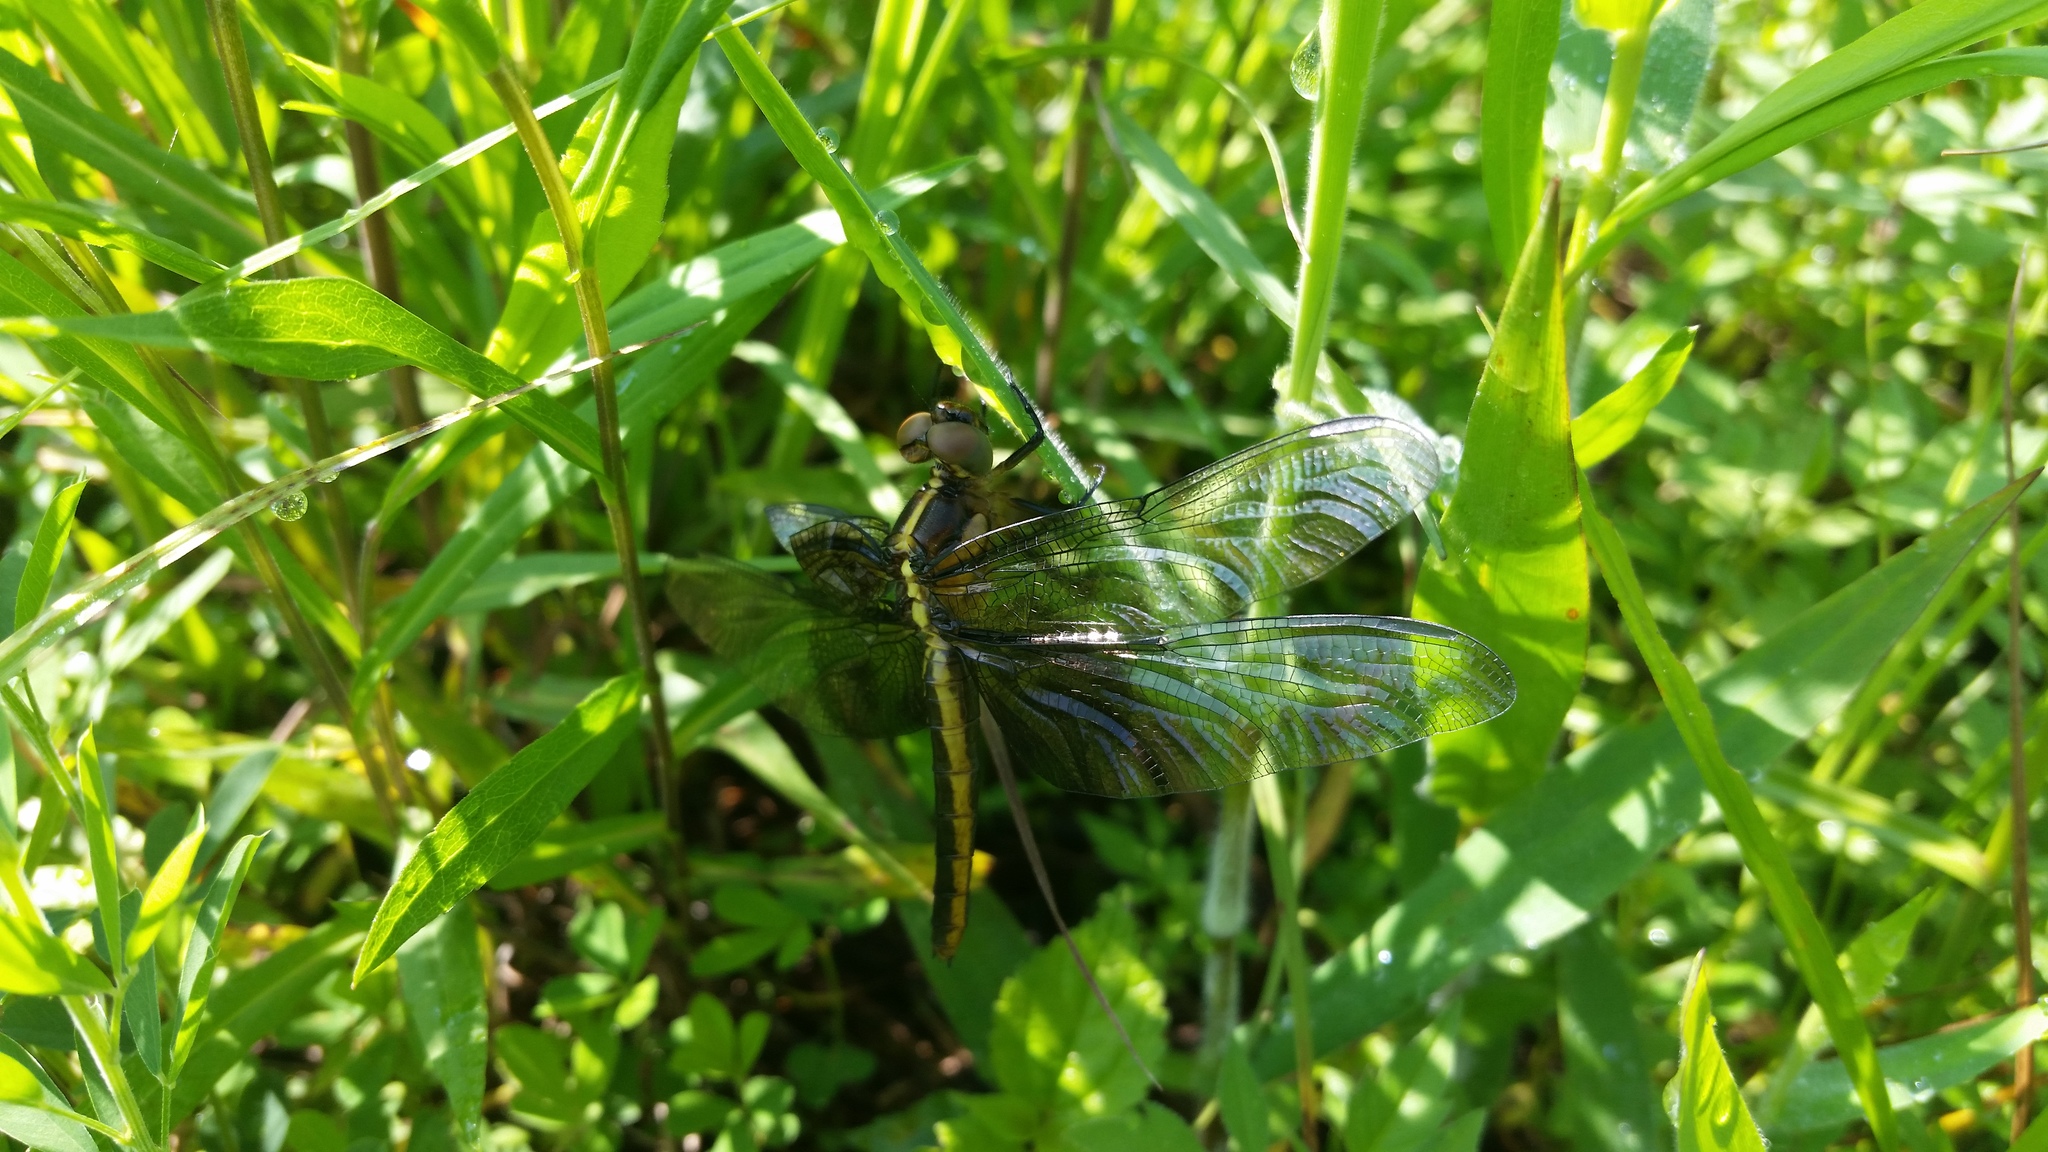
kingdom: Animalia
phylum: Arthropoda
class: Insecta
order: Odonata
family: Libellulidae
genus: Libellula
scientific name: Libellula luctuosa
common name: Widow skimmer
